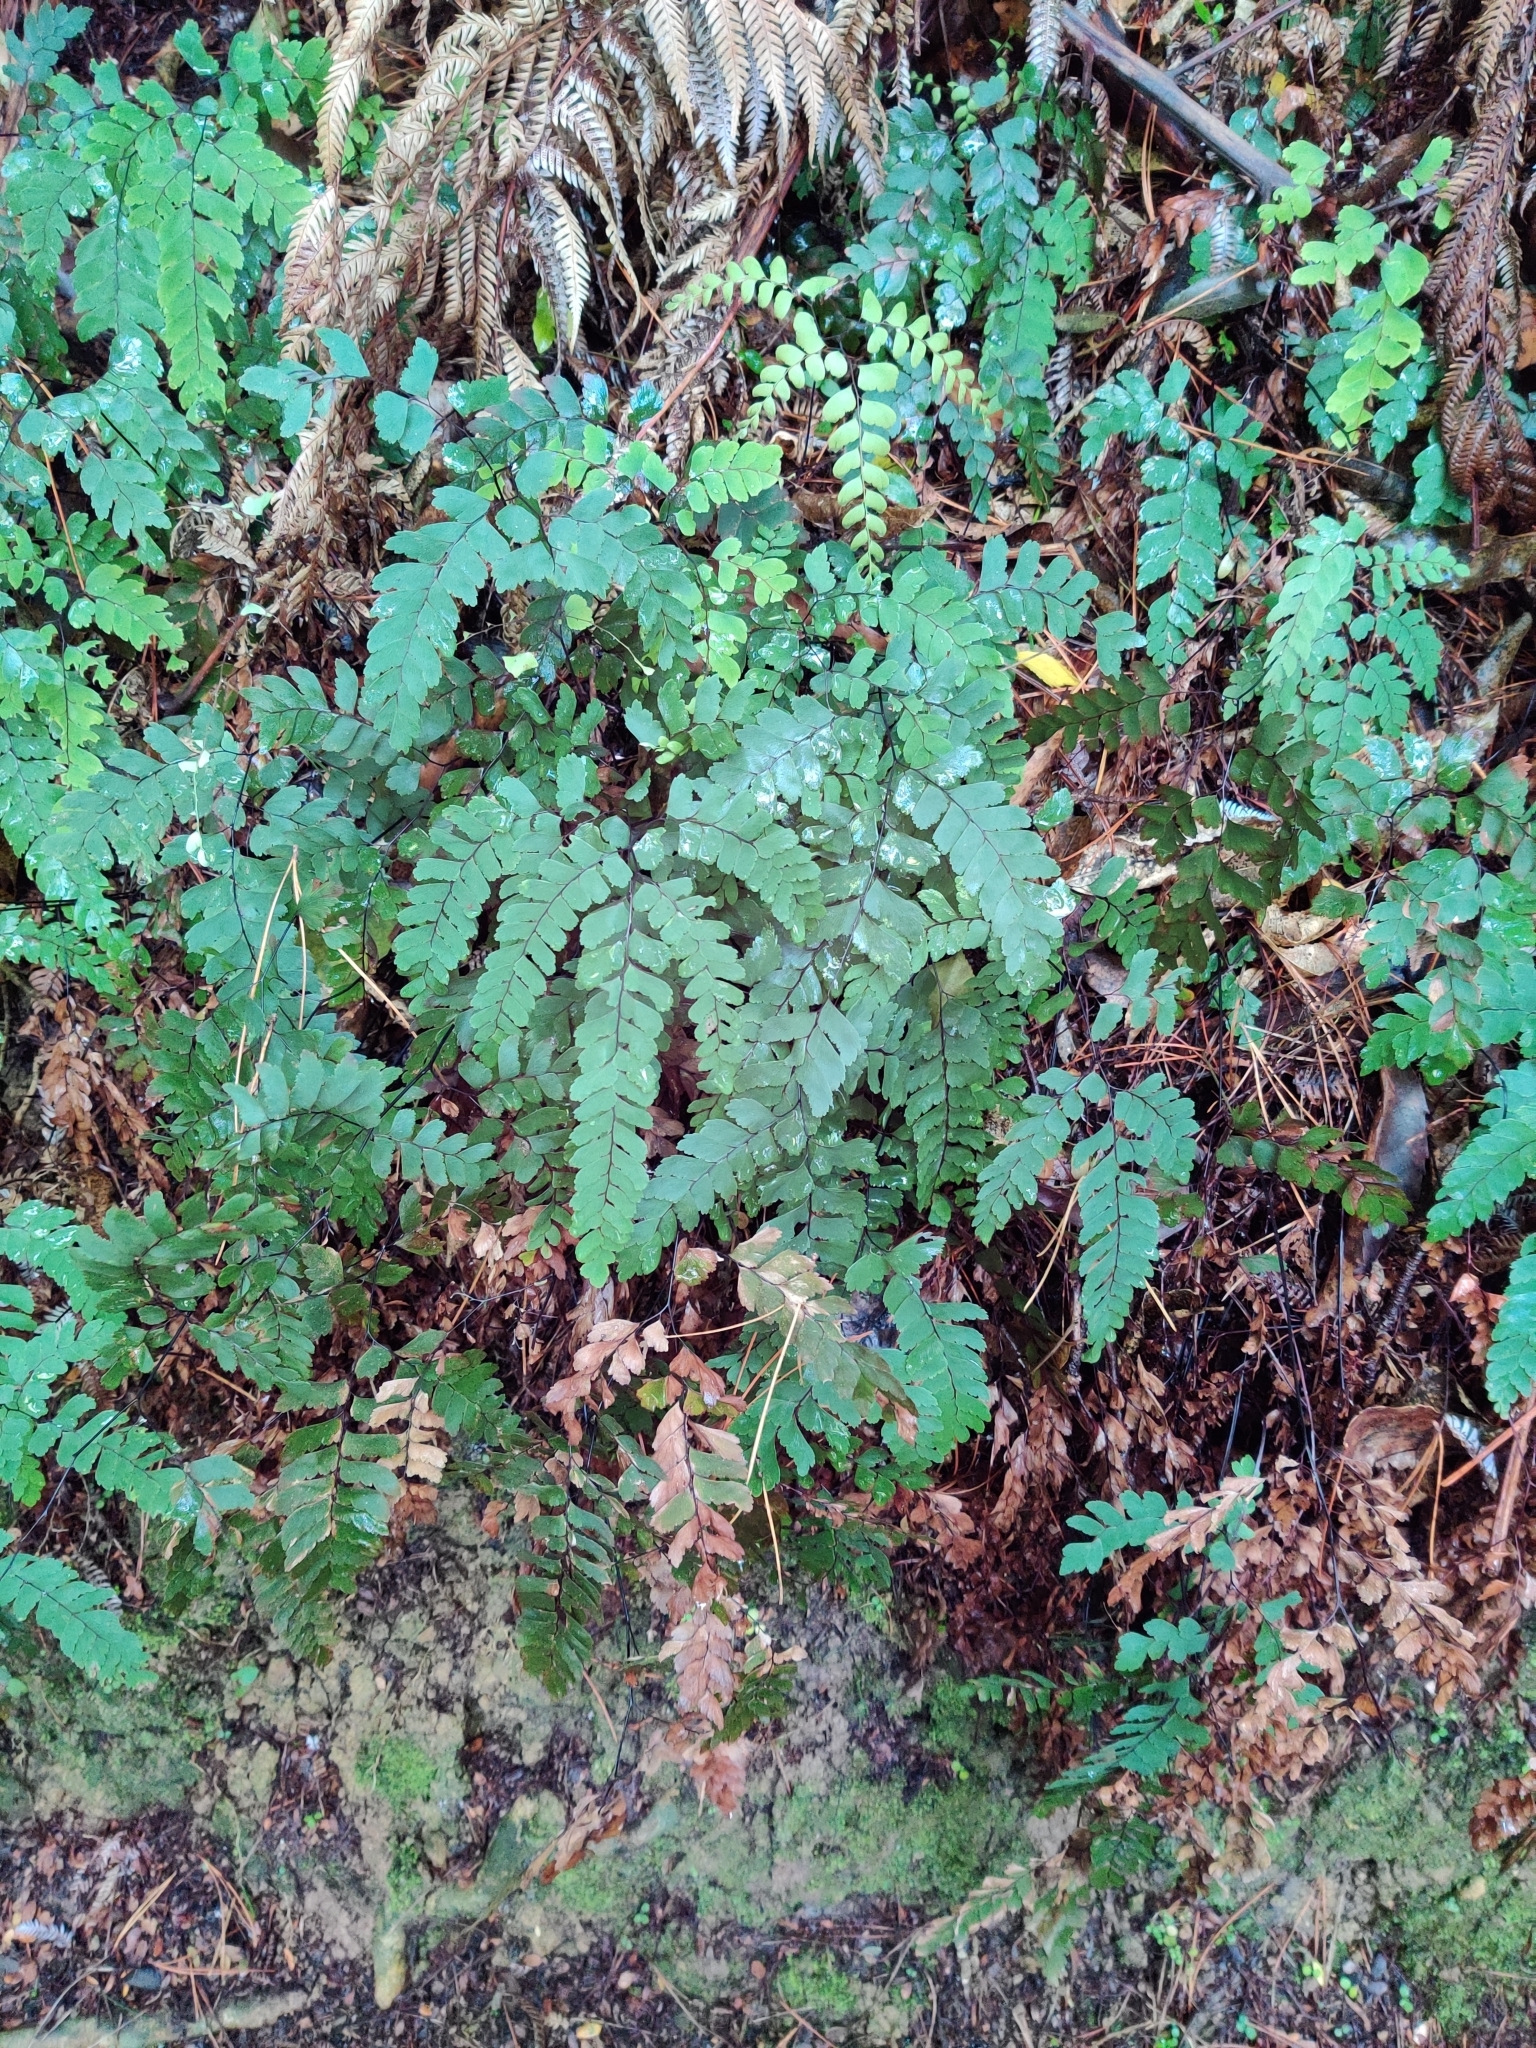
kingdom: Plantae
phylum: Tracheophyta
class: Polypodiopsida
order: Polypodiales
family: Pteridaceae
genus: Adiantum
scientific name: Adiantum cunninghamii
